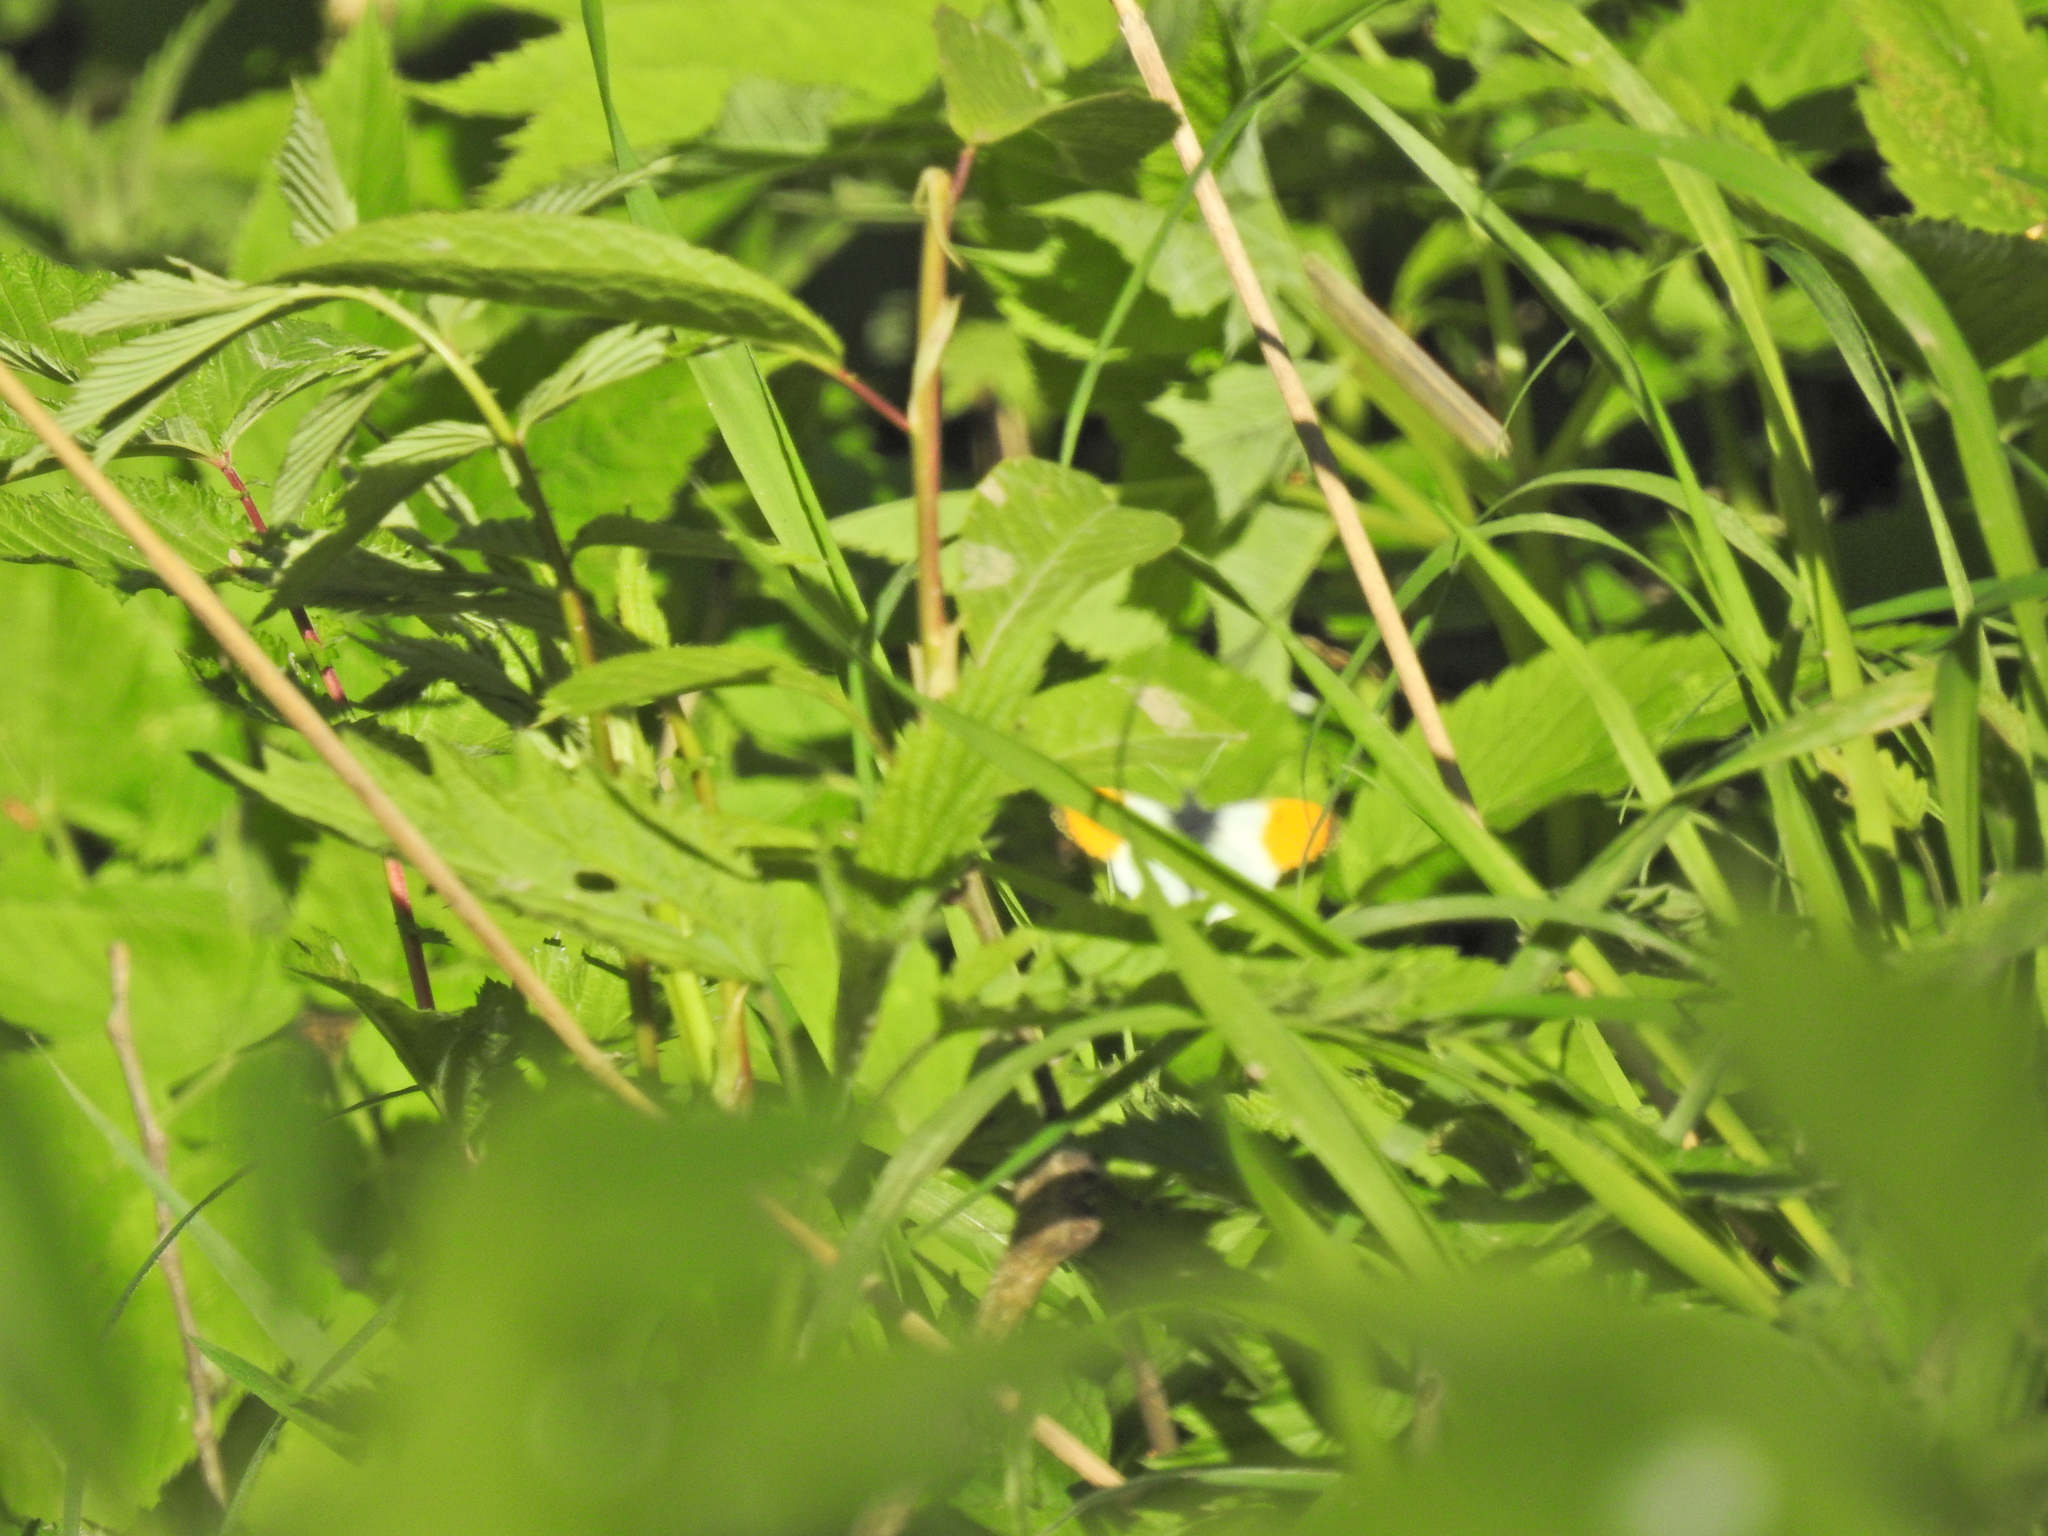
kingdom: Animalia
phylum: Arthropoda
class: Insecta
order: Lepidoptera
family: Pieridae
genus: Anthocharis
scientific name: Anthocharis cardamines
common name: Orange-tip
